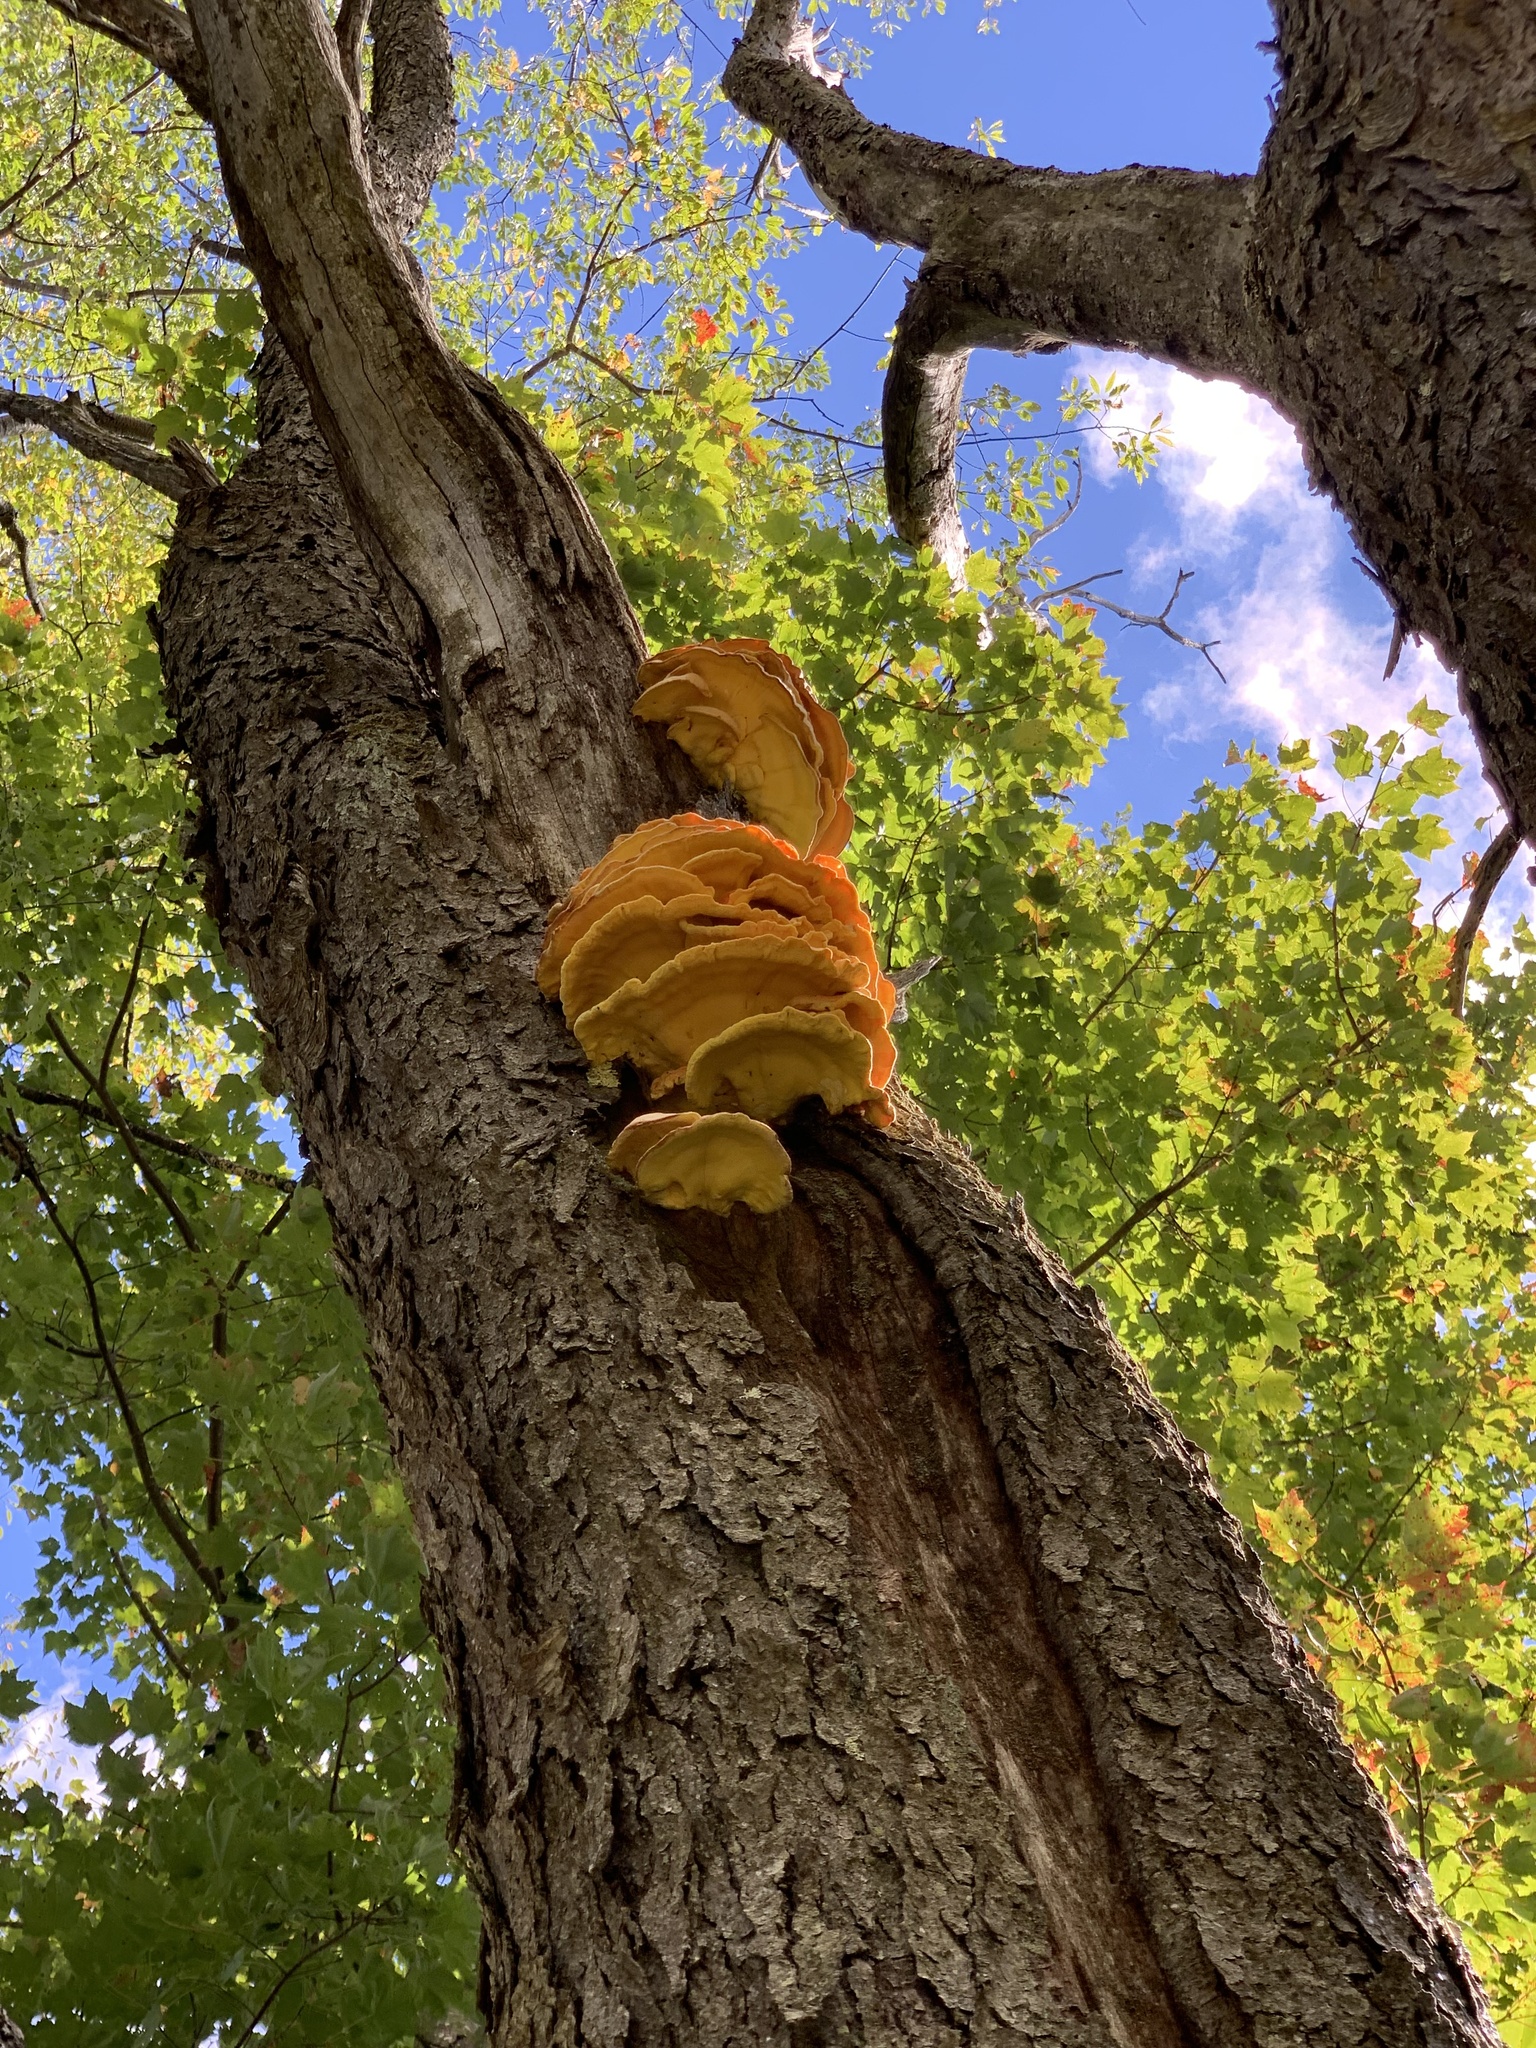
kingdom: Fungi
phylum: Basidiomycota
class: Agaricomycetes
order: Polyporales
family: Laetiporaceae
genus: Laetiporus
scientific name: Laetiporus sulphureus
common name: Chicken of the woods
